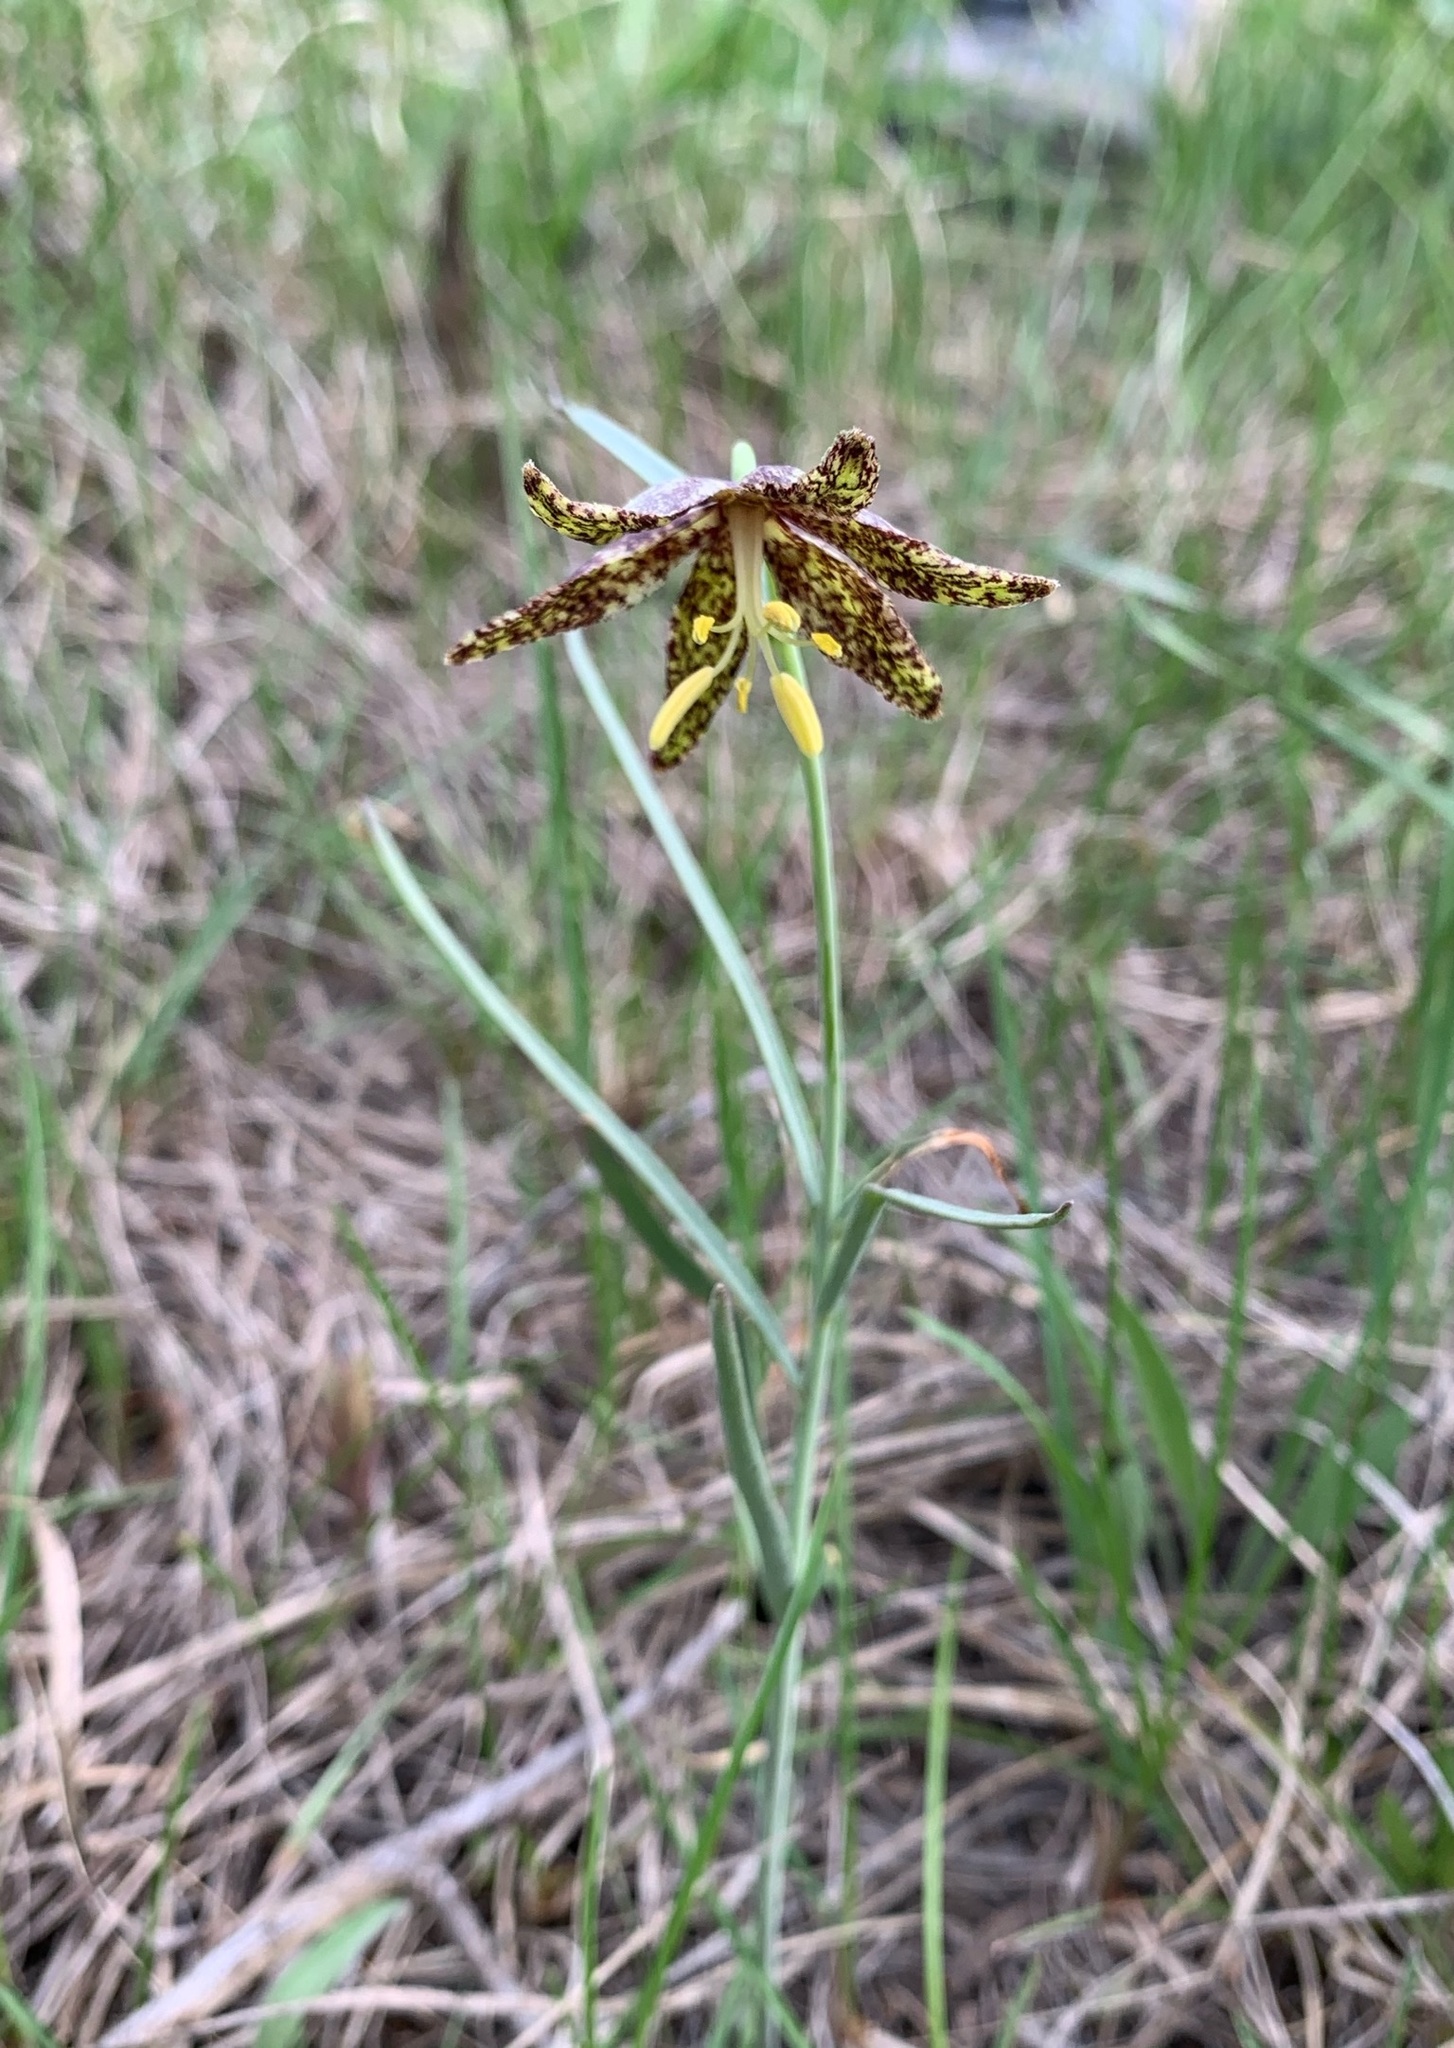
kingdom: Plantae
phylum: Tracheophyta
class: Liliopsida
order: Liliales
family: Liliaceae
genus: Fritillaria
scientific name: Fritillaria atropurpurea
